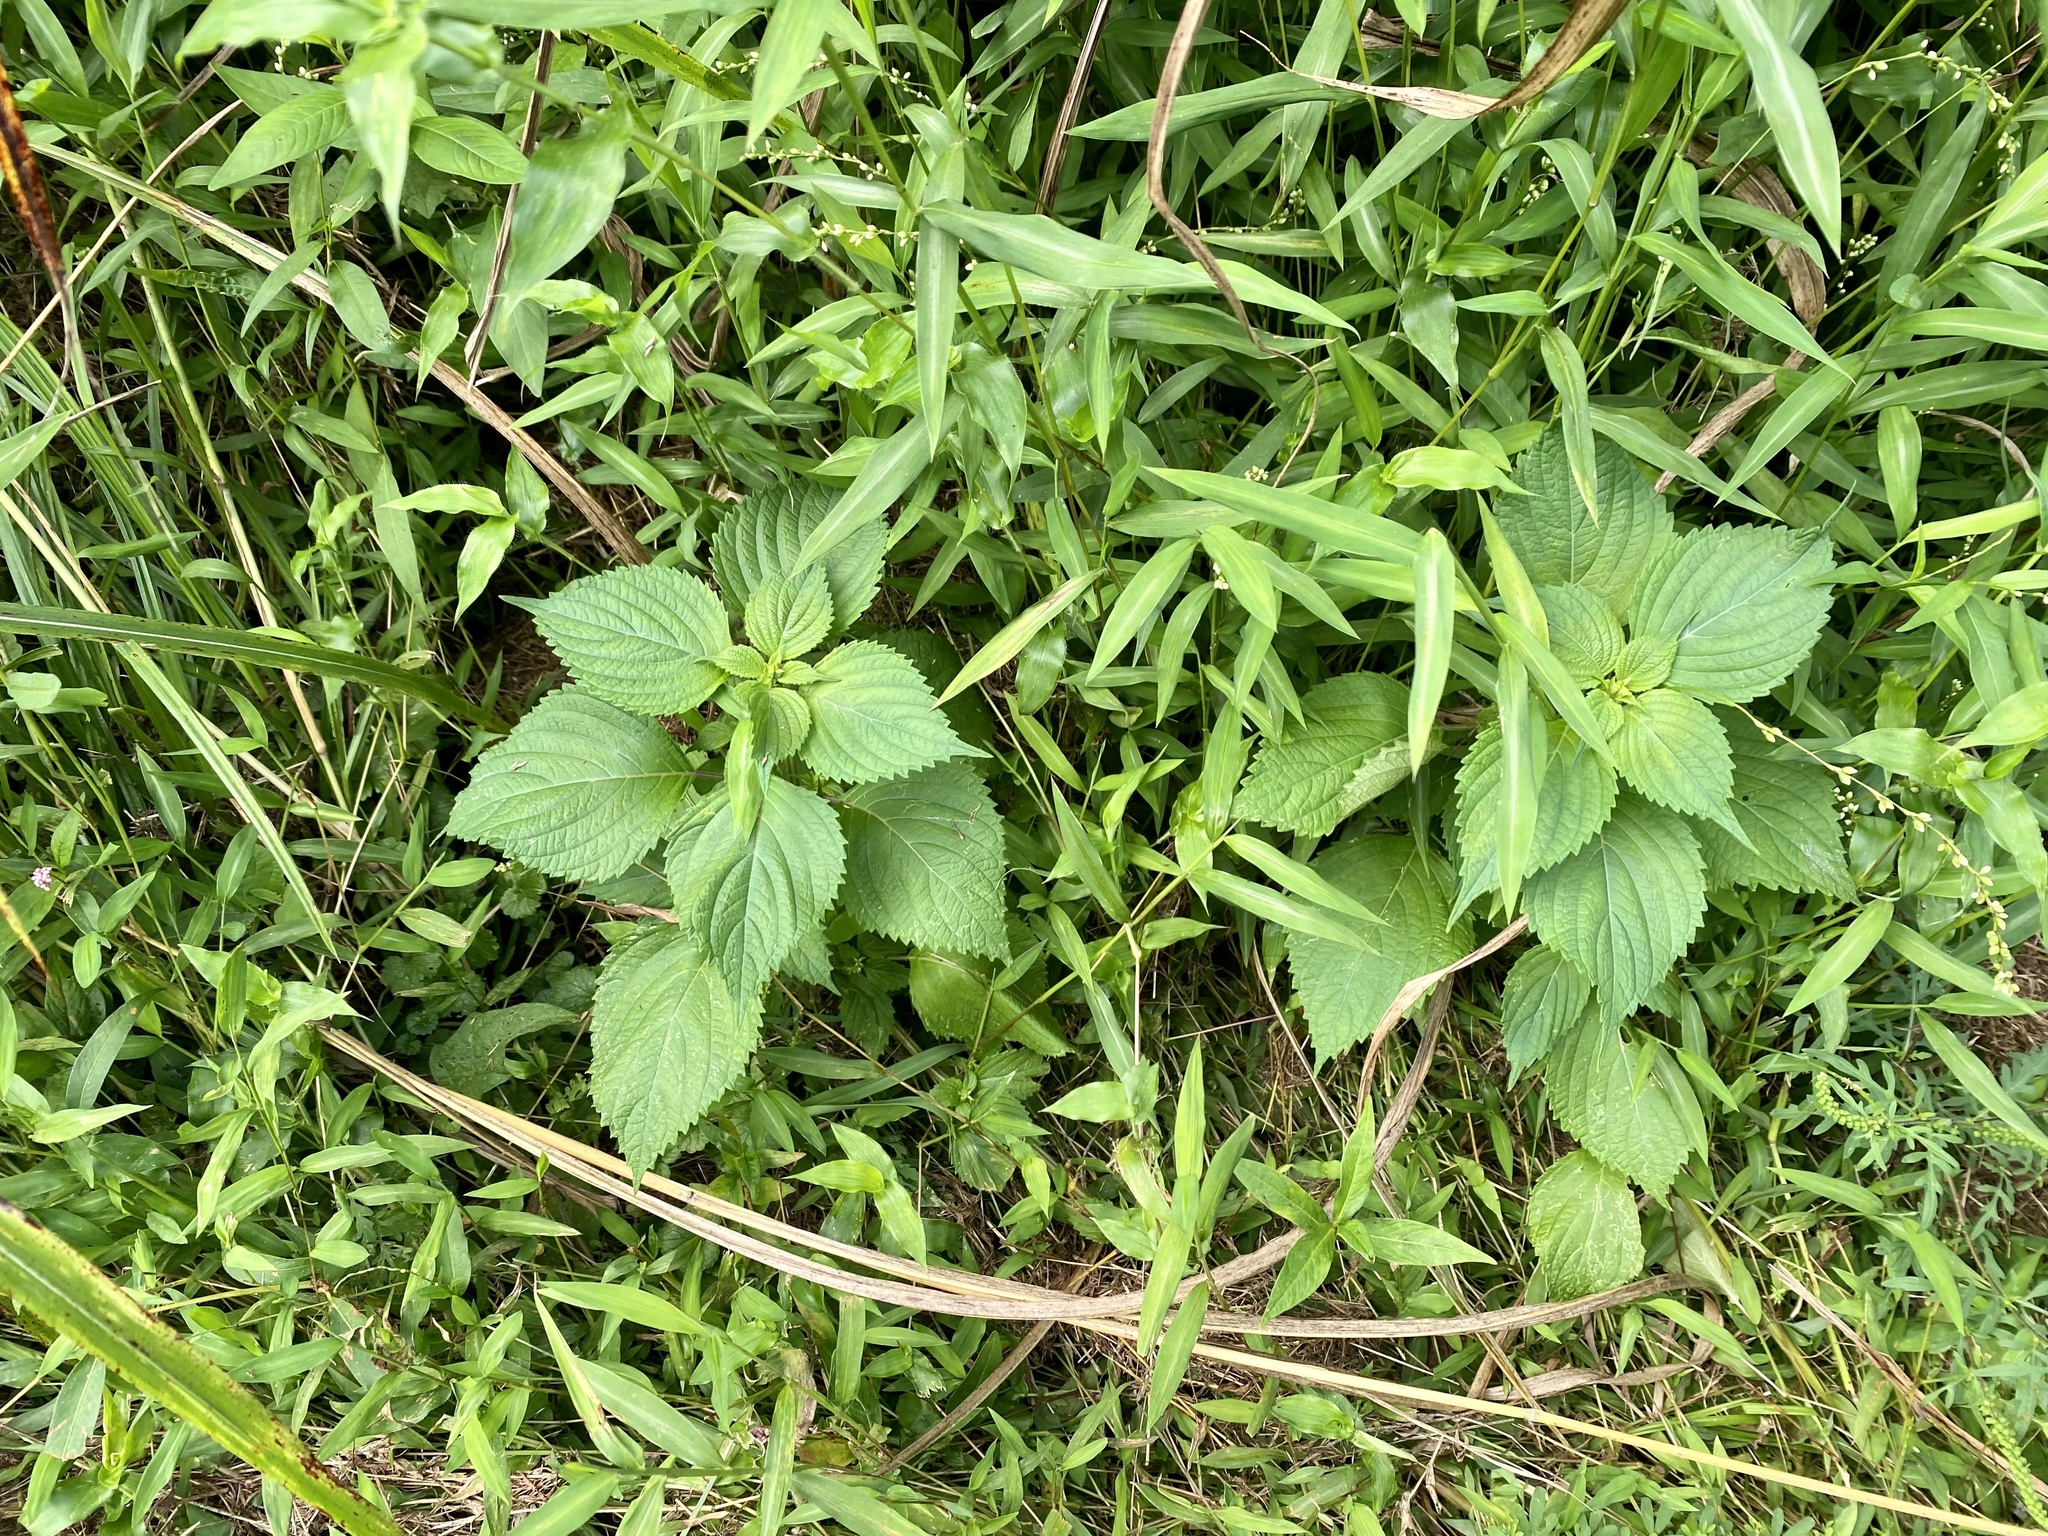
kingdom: Plantae
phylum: Tracheophyta
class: Magnoliopsida
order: Lamiales
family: Lamiaceae
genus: Perilla
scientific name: Perilla frutescens
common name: Perilla
